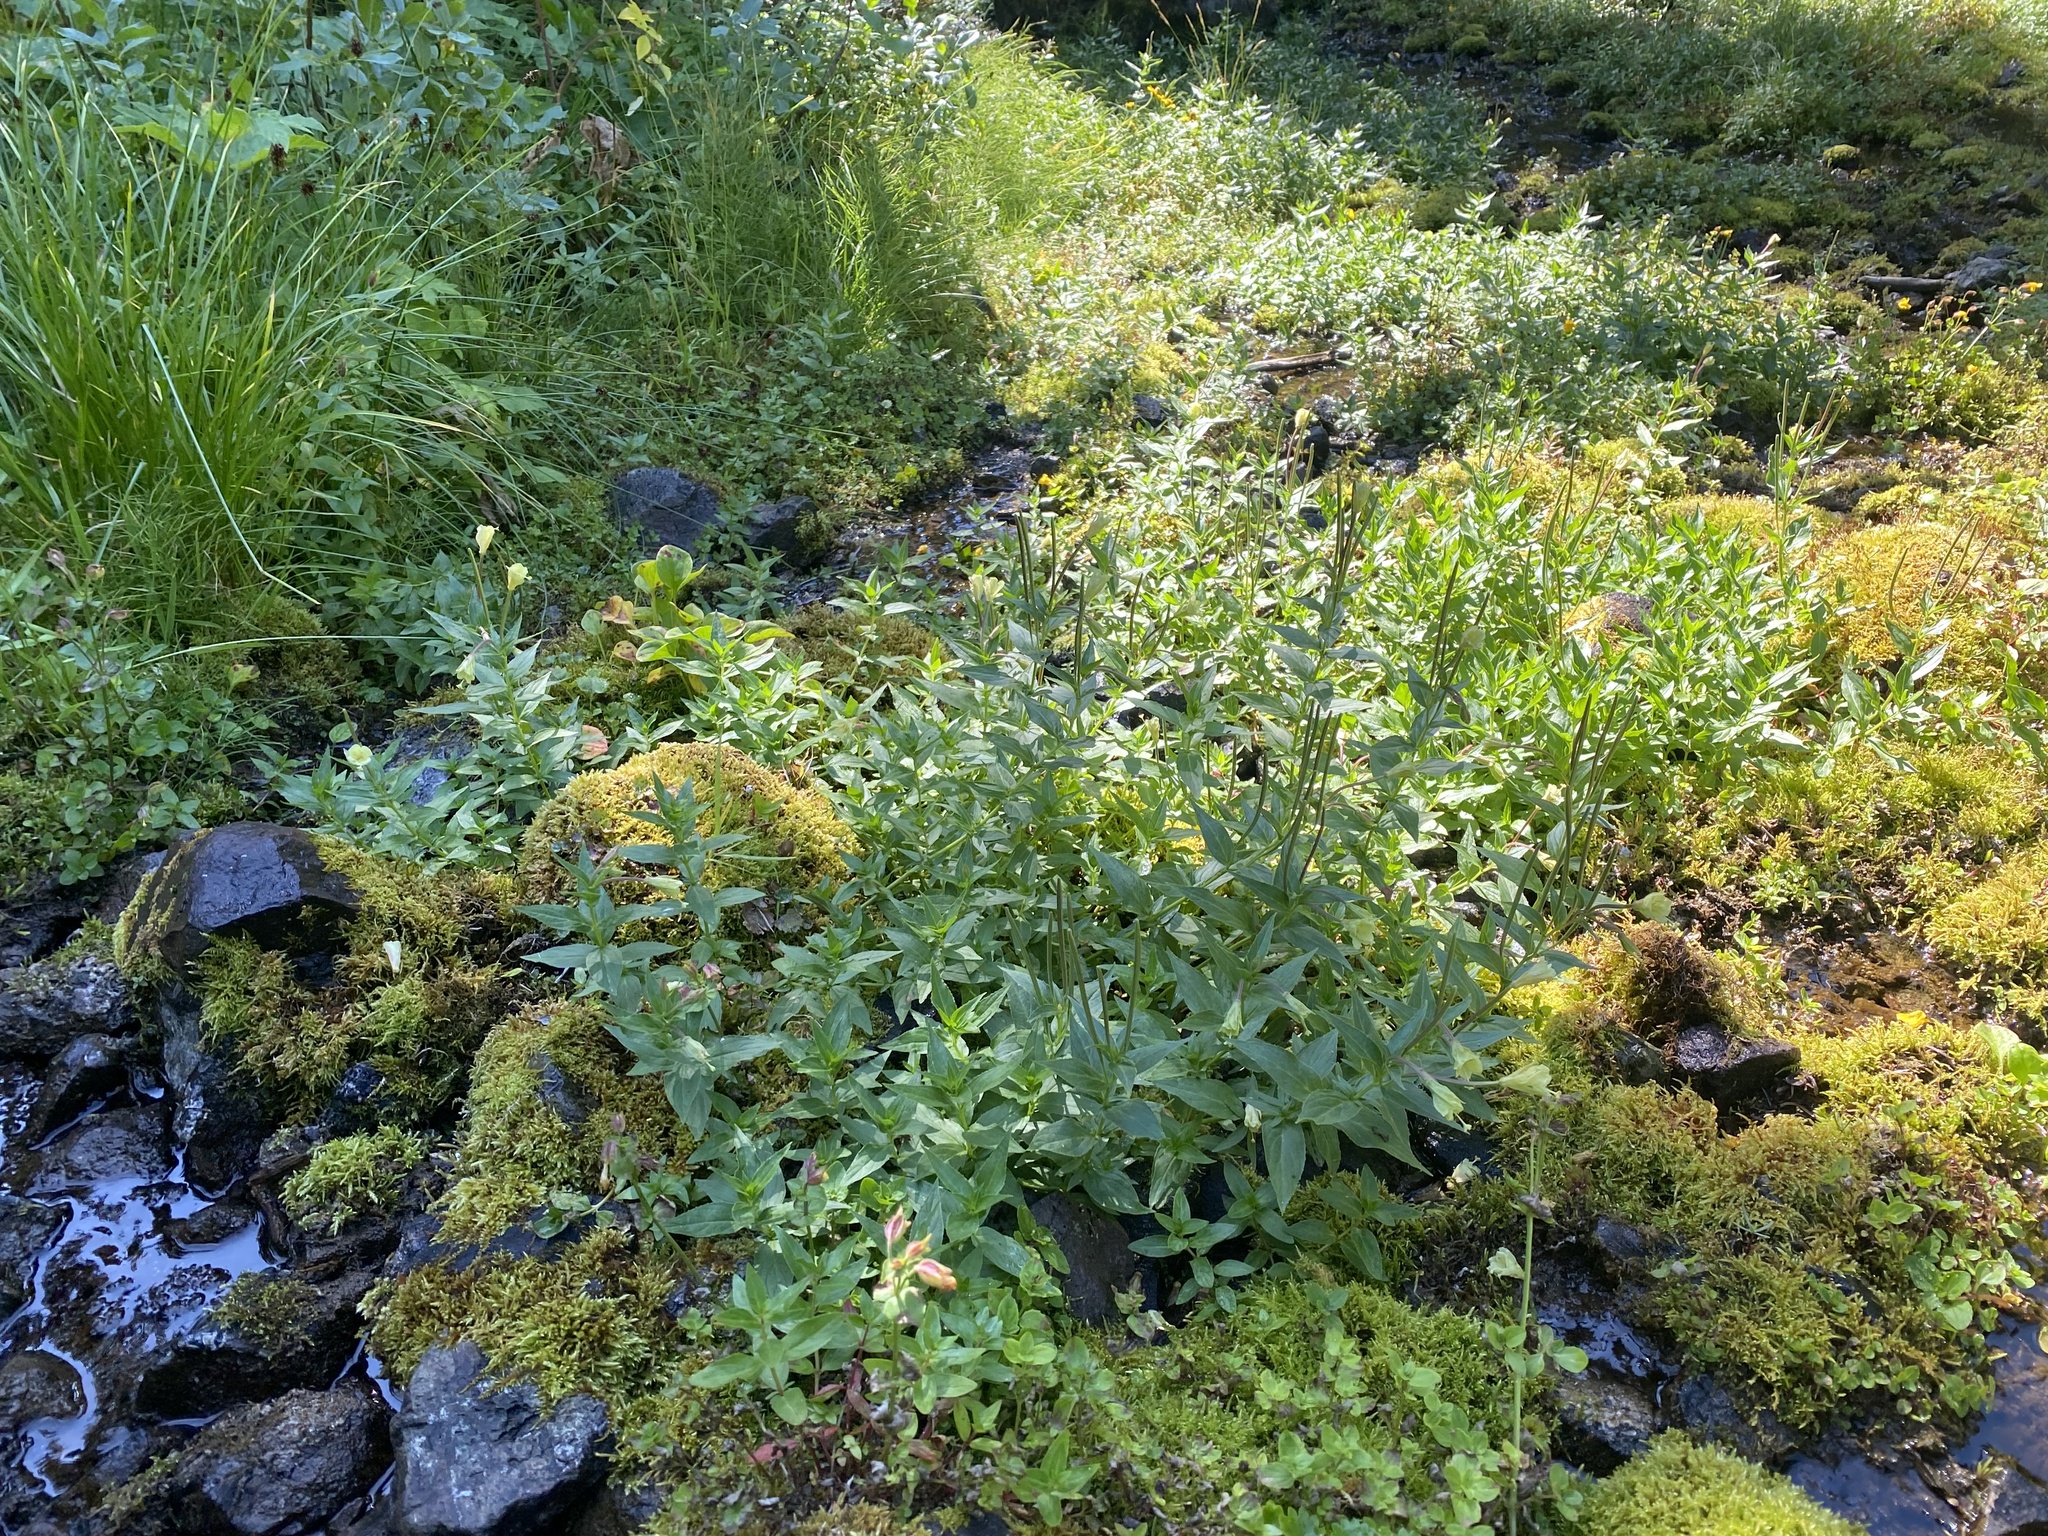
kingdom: Plantae
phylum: Tracheophyta
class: Magnoliopsida
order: Myrtales
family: Onagraceae
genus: Epilobium
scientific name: Epilobium luteum
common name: Yellow willowherb
